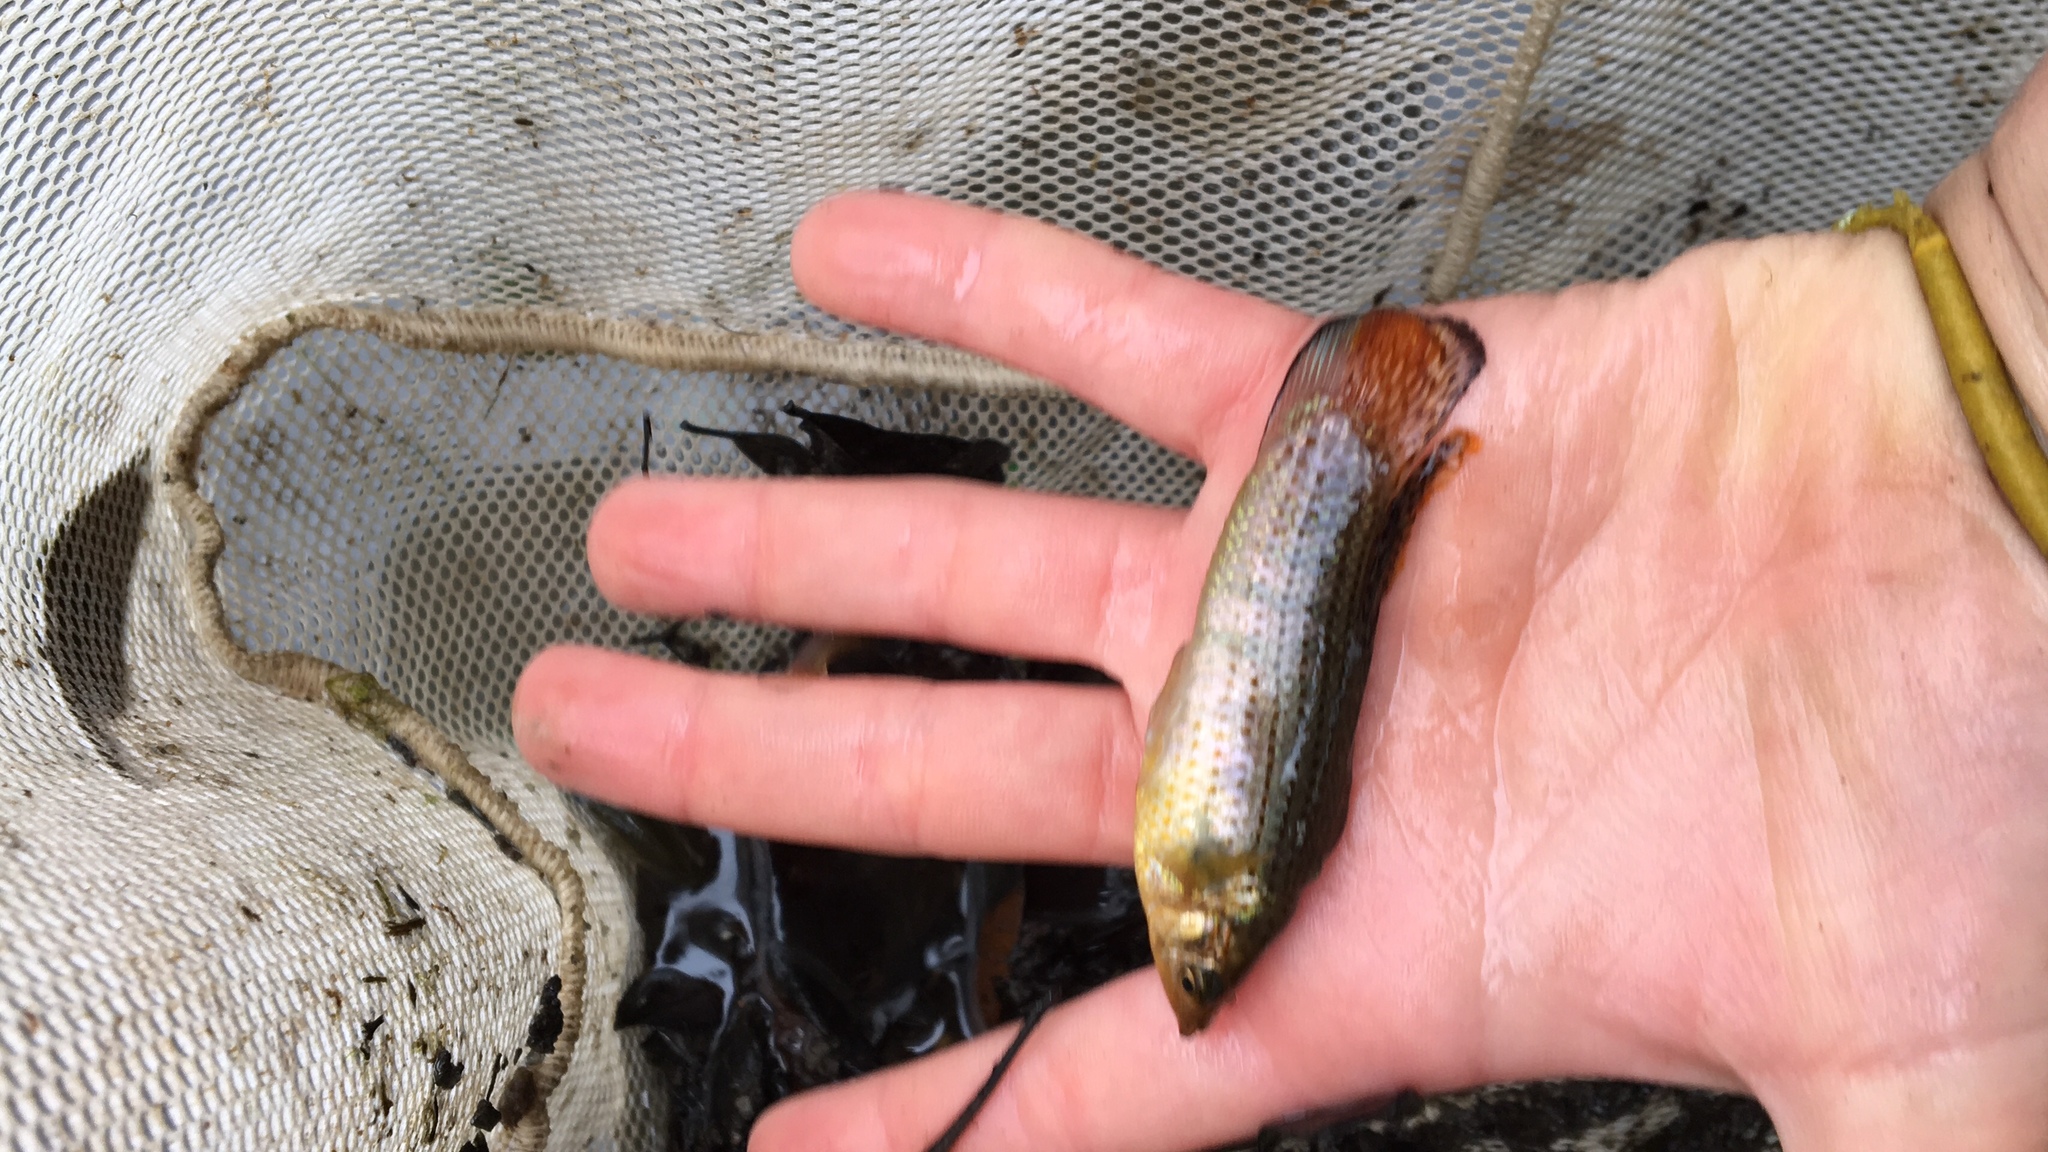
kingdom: Animalia
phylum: Chordata
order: Cyprinodontiformes
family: Poeciliidae
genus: Poecilia
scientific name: Poecilia latipinna
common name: Sailfin molly
